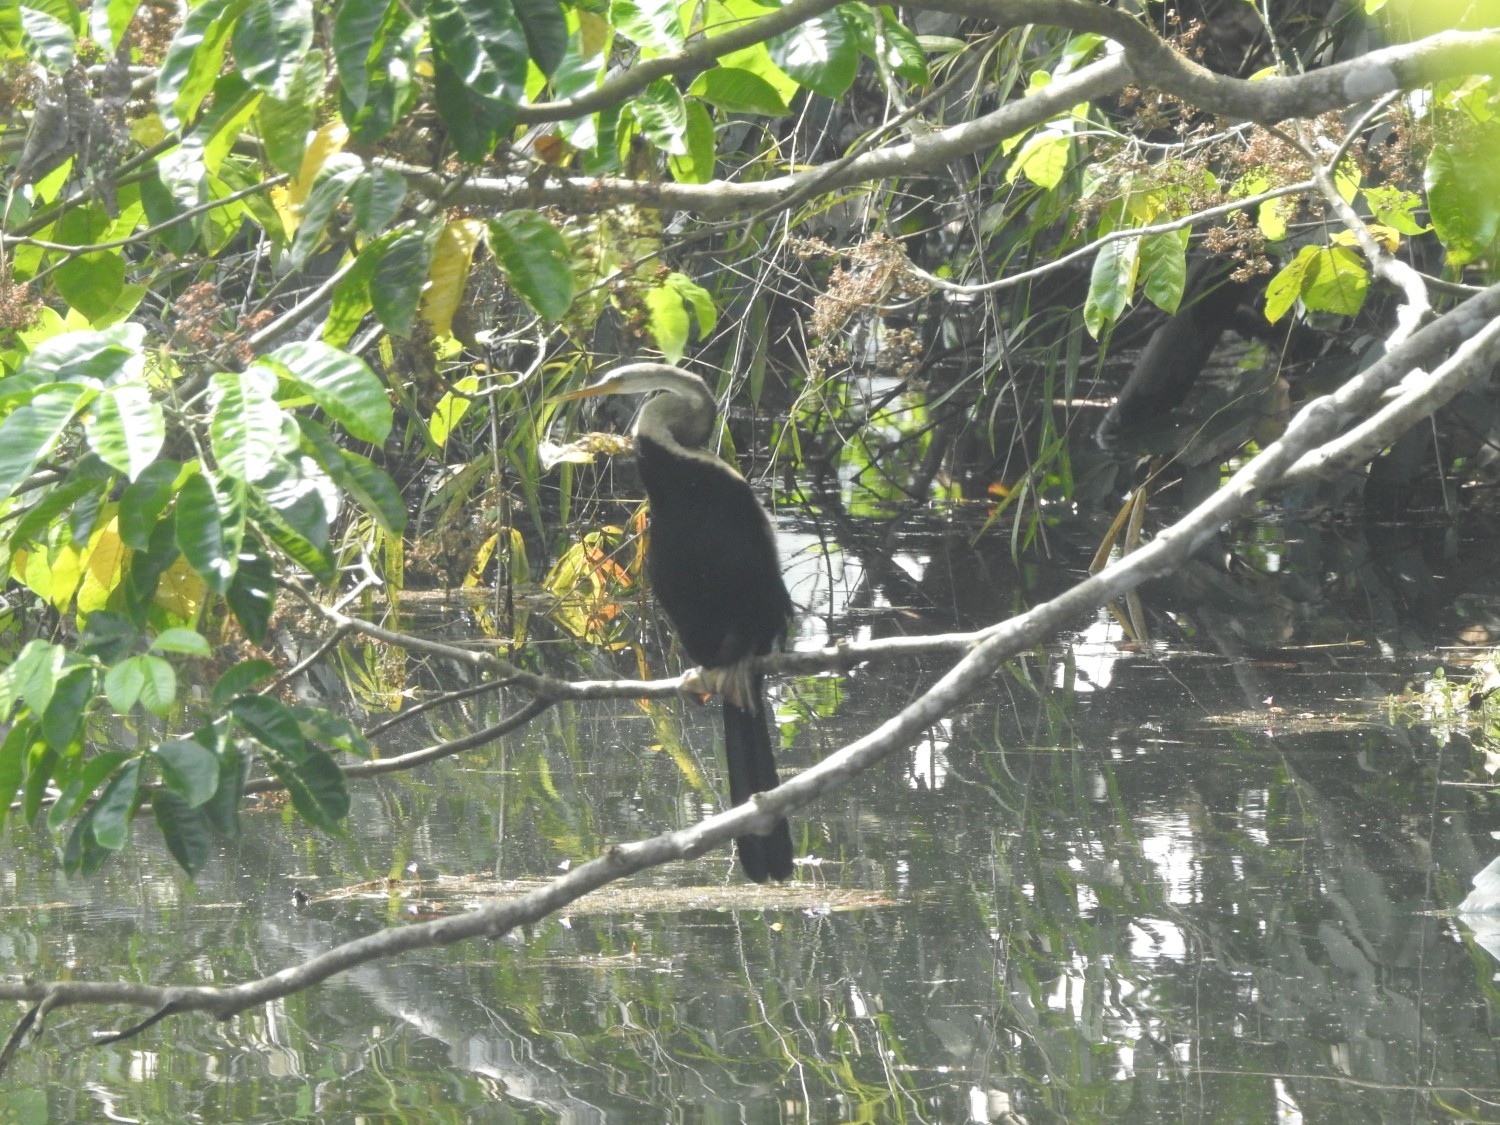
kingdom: Animalia
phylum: Chordata
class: Aves
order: Suliformes
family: Anhingidae
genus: Anhinga
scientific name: Anhinga melanogaster
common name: Oriental darter
